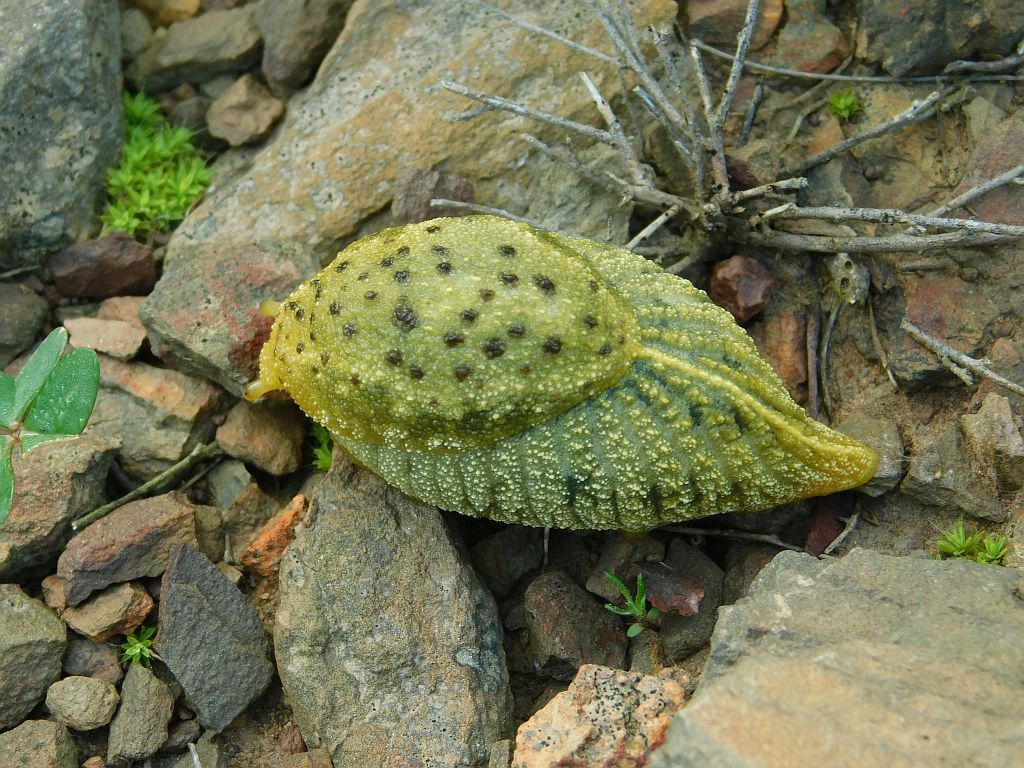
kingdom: Animalia
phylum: Mollusca
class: Gastropoda
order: Stylommatophora
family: Oopeltidae
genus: Oopelta
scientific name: Oopelta nigropunctata
